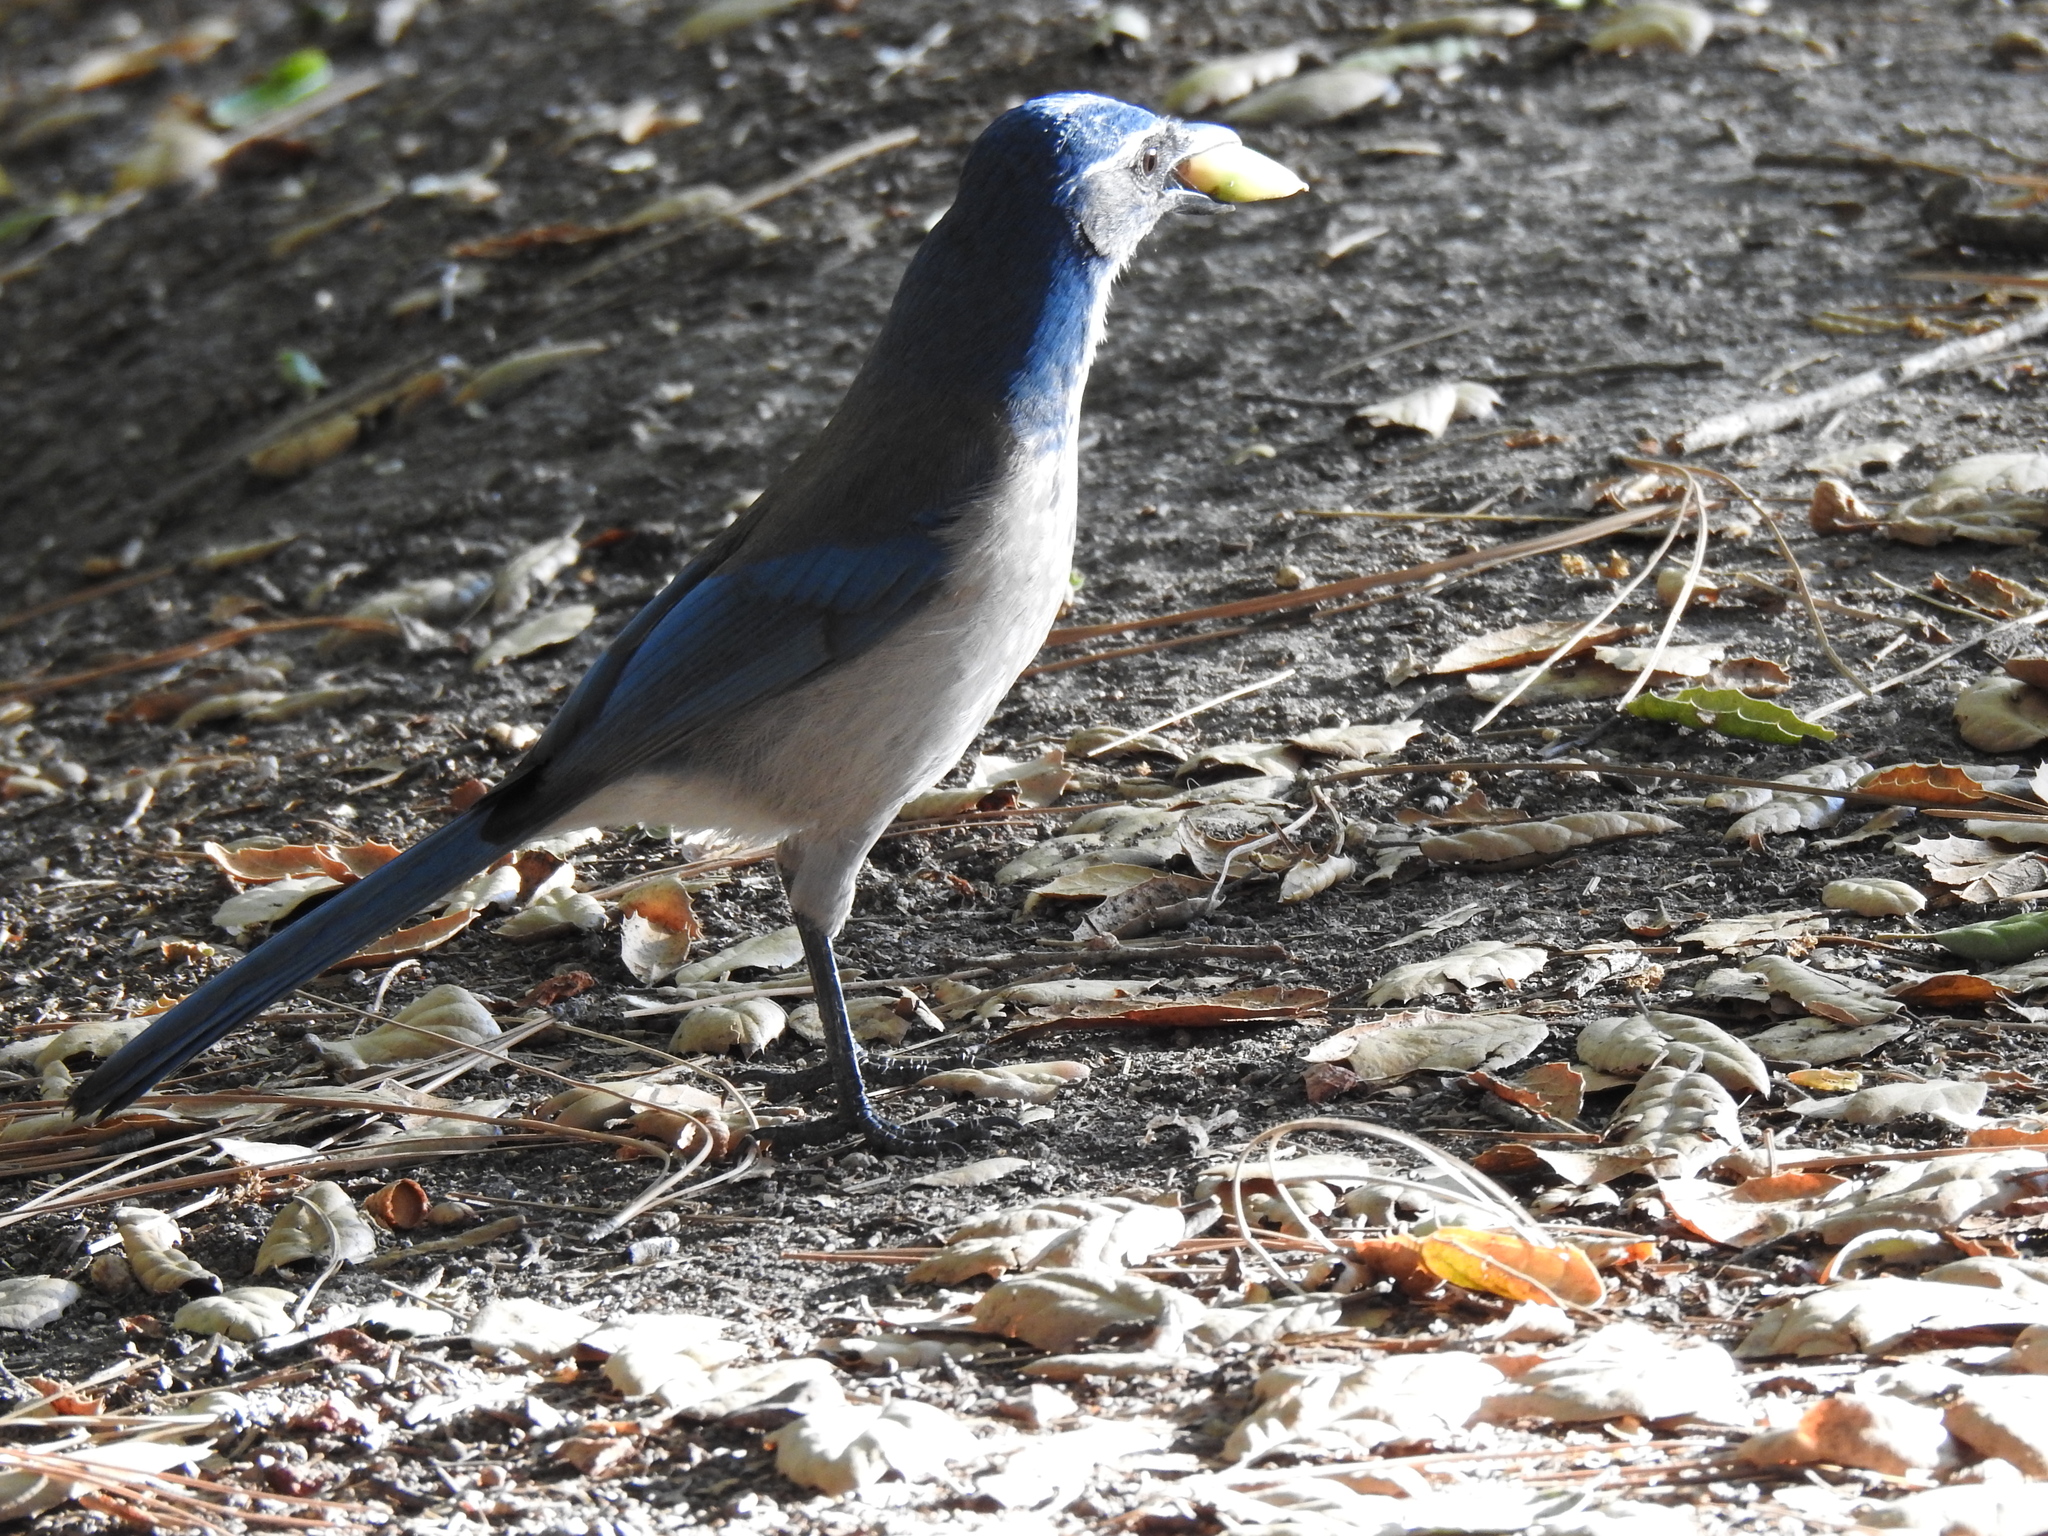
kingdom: Animalia
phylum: Chordata
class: Aves
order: Passeriformes
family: Corvidae
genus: Aphelocoma
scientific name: Aphelocoma californica
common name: California scrub-jay
